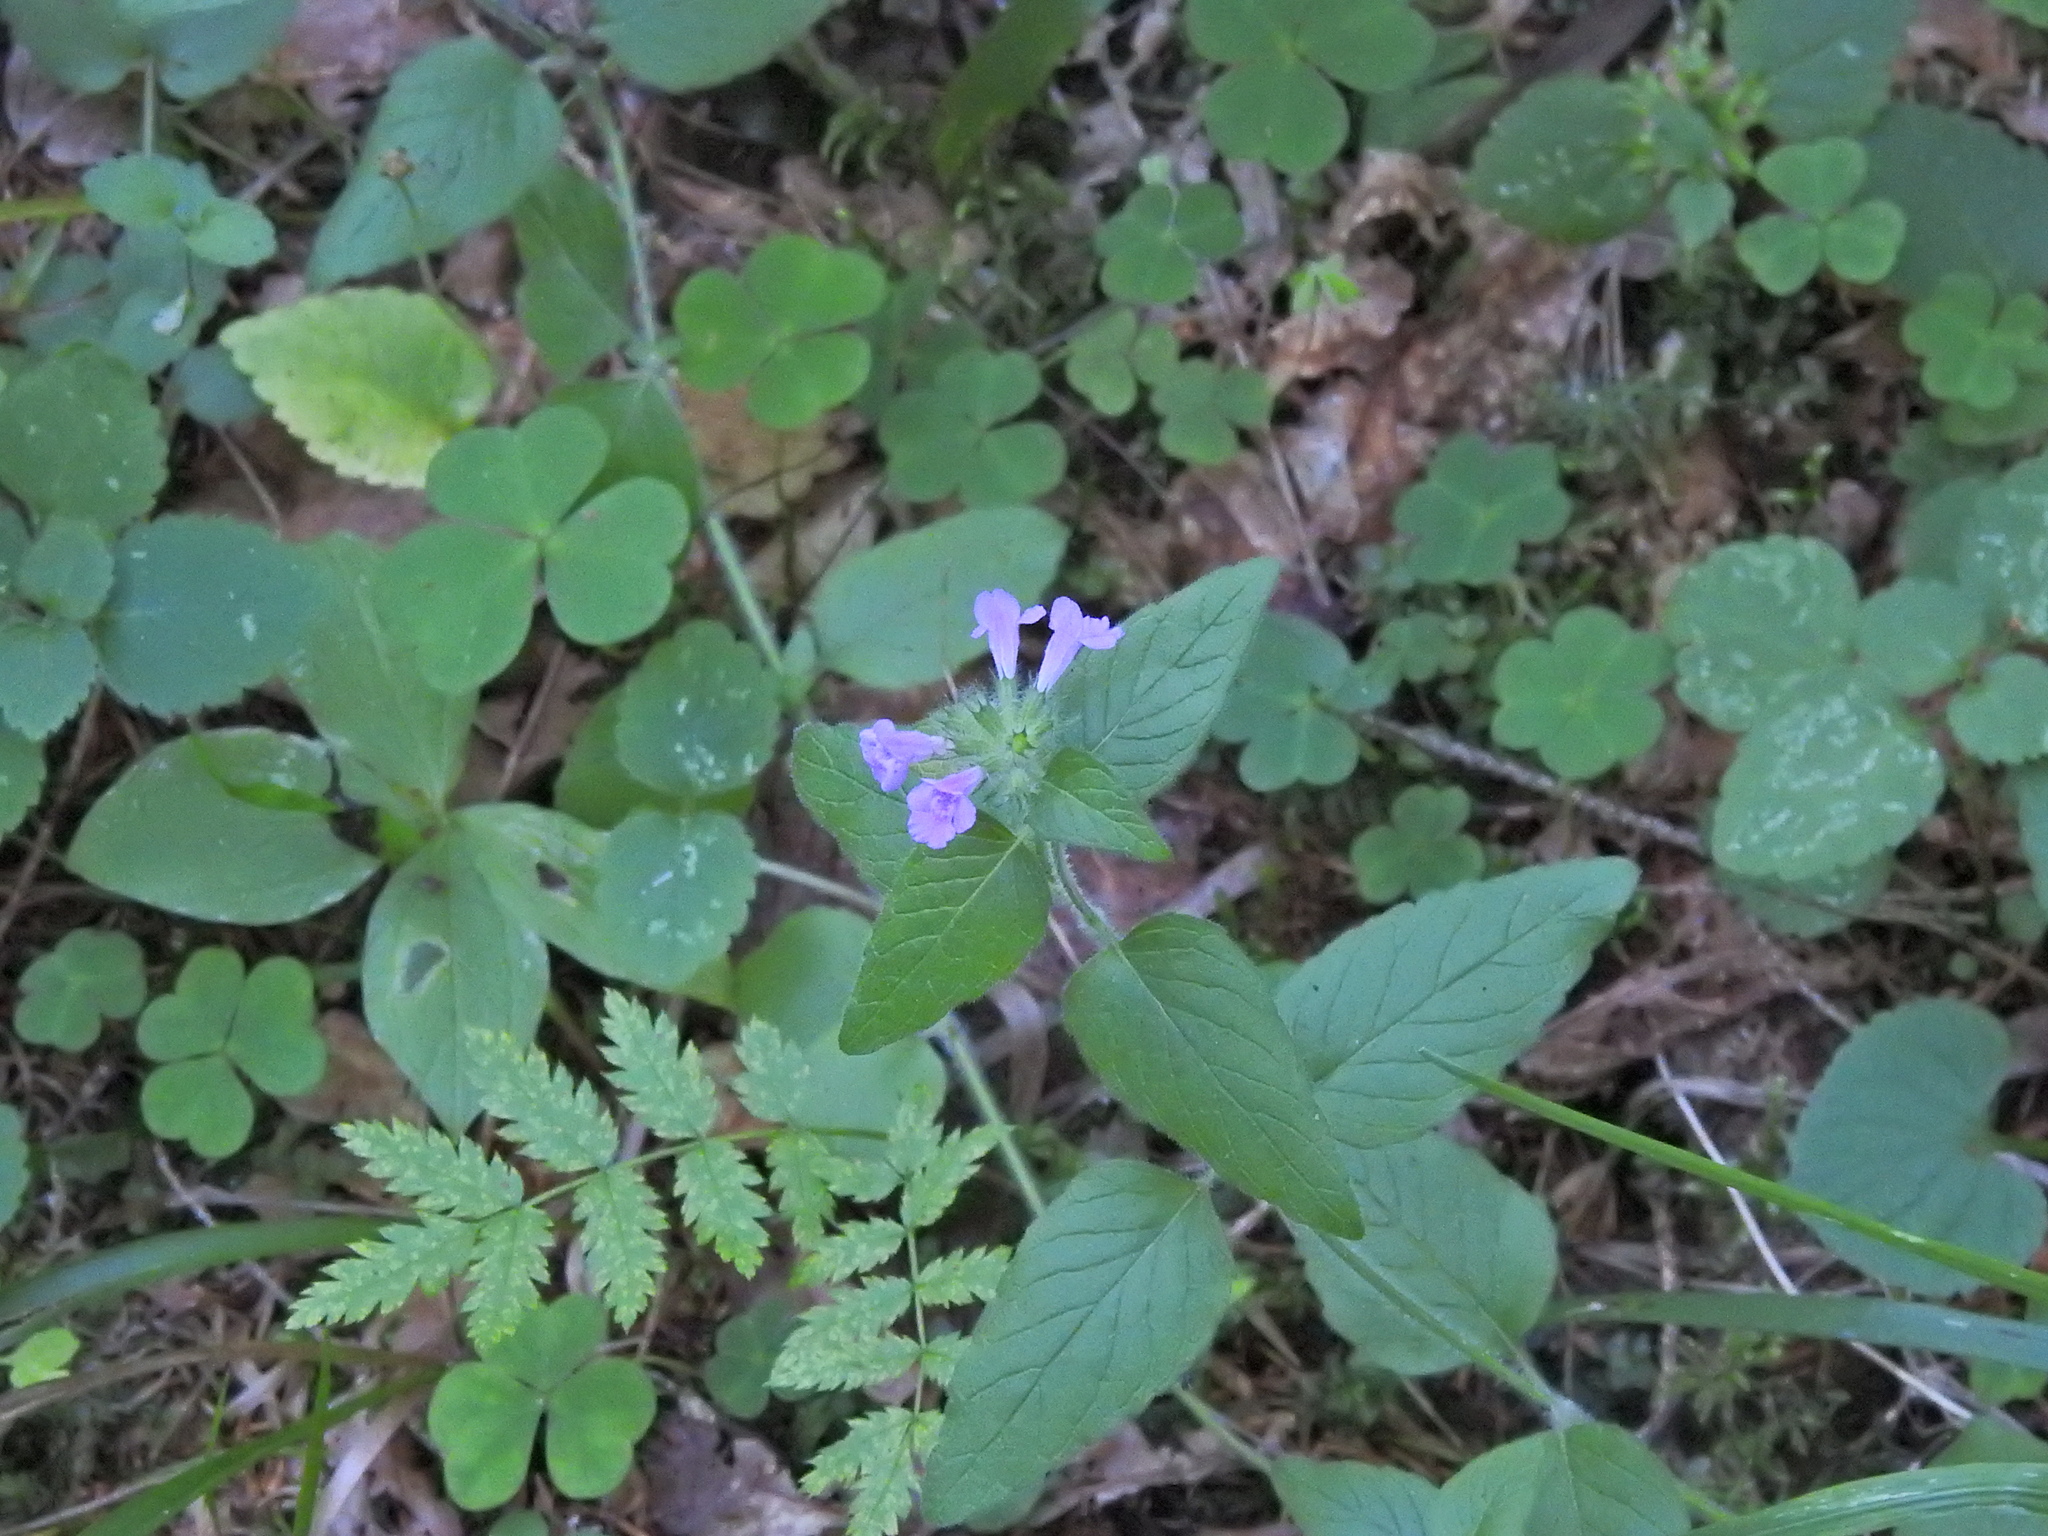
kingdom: Plantae
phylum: Tracheophyta
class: Magnoliopsida
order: Lamiales
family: Lamiaceae
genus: Clinopodium
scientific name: Clinopodium vulgare
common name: Wild basil
